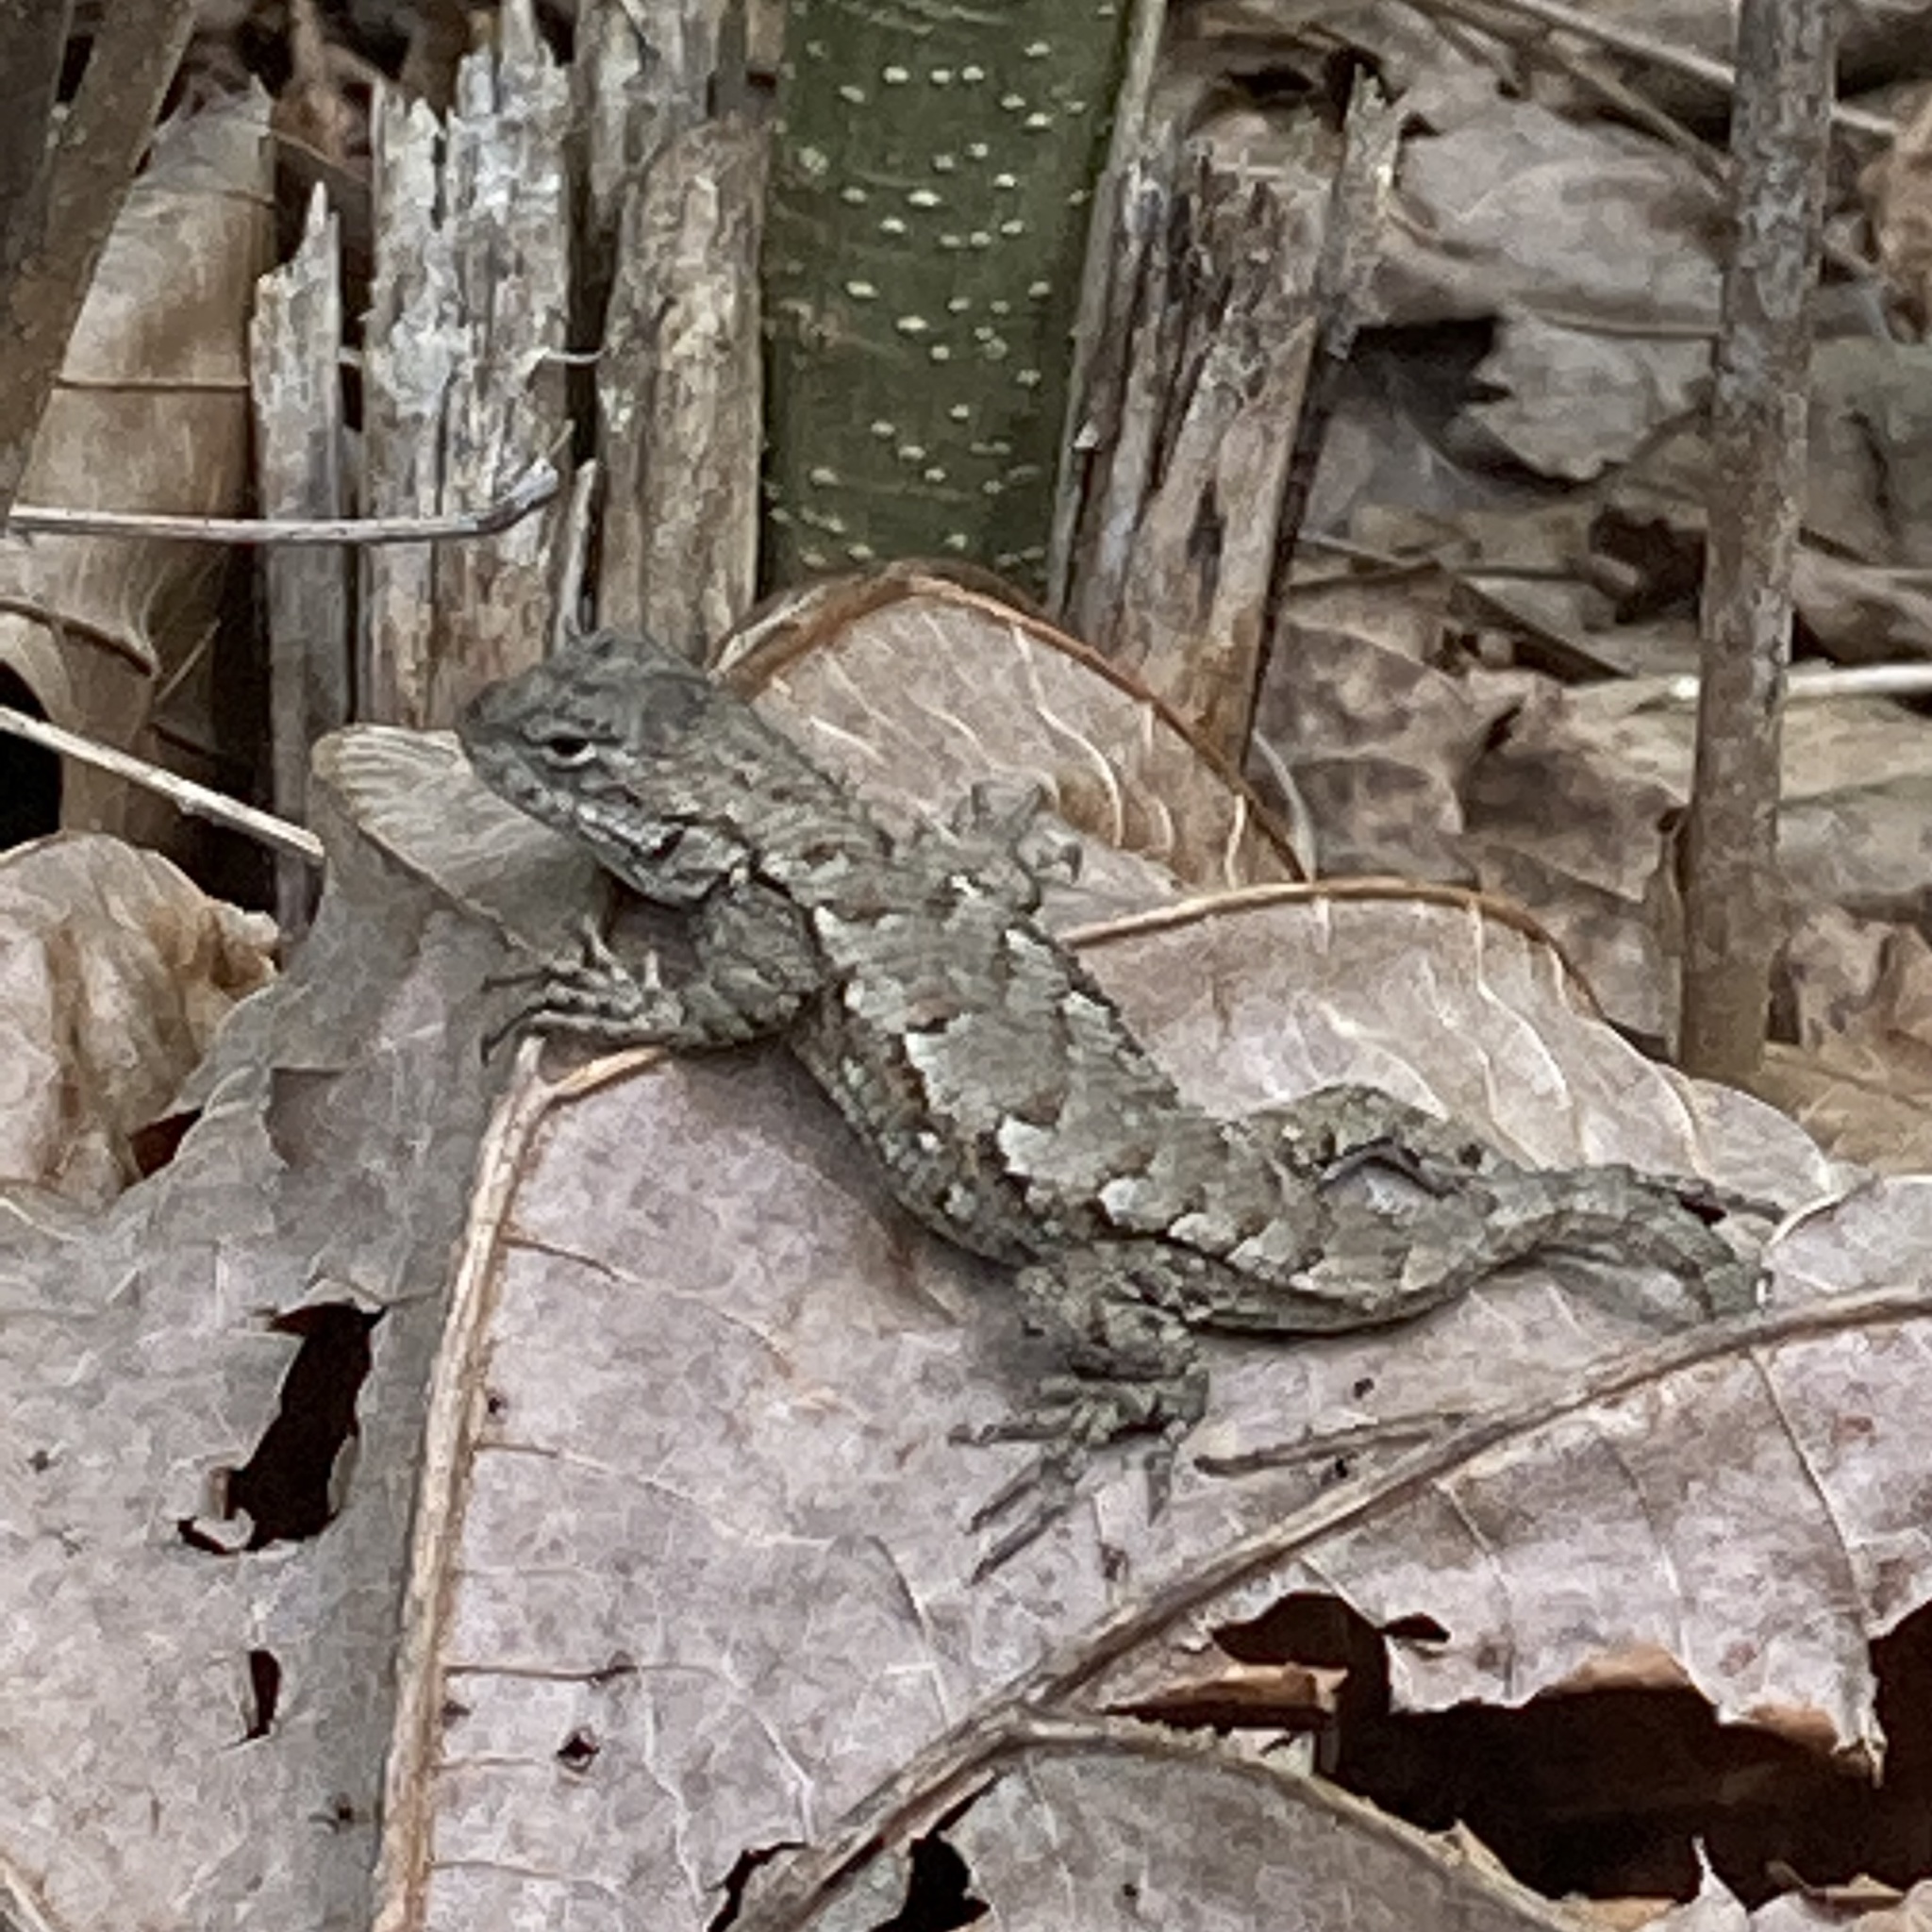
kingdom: Animalia
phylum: Chordata
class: Squamata
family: Phrynosomatidae
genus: Sceloporus
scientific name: Sceloporus undulatus
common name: Eastern fence lizard
